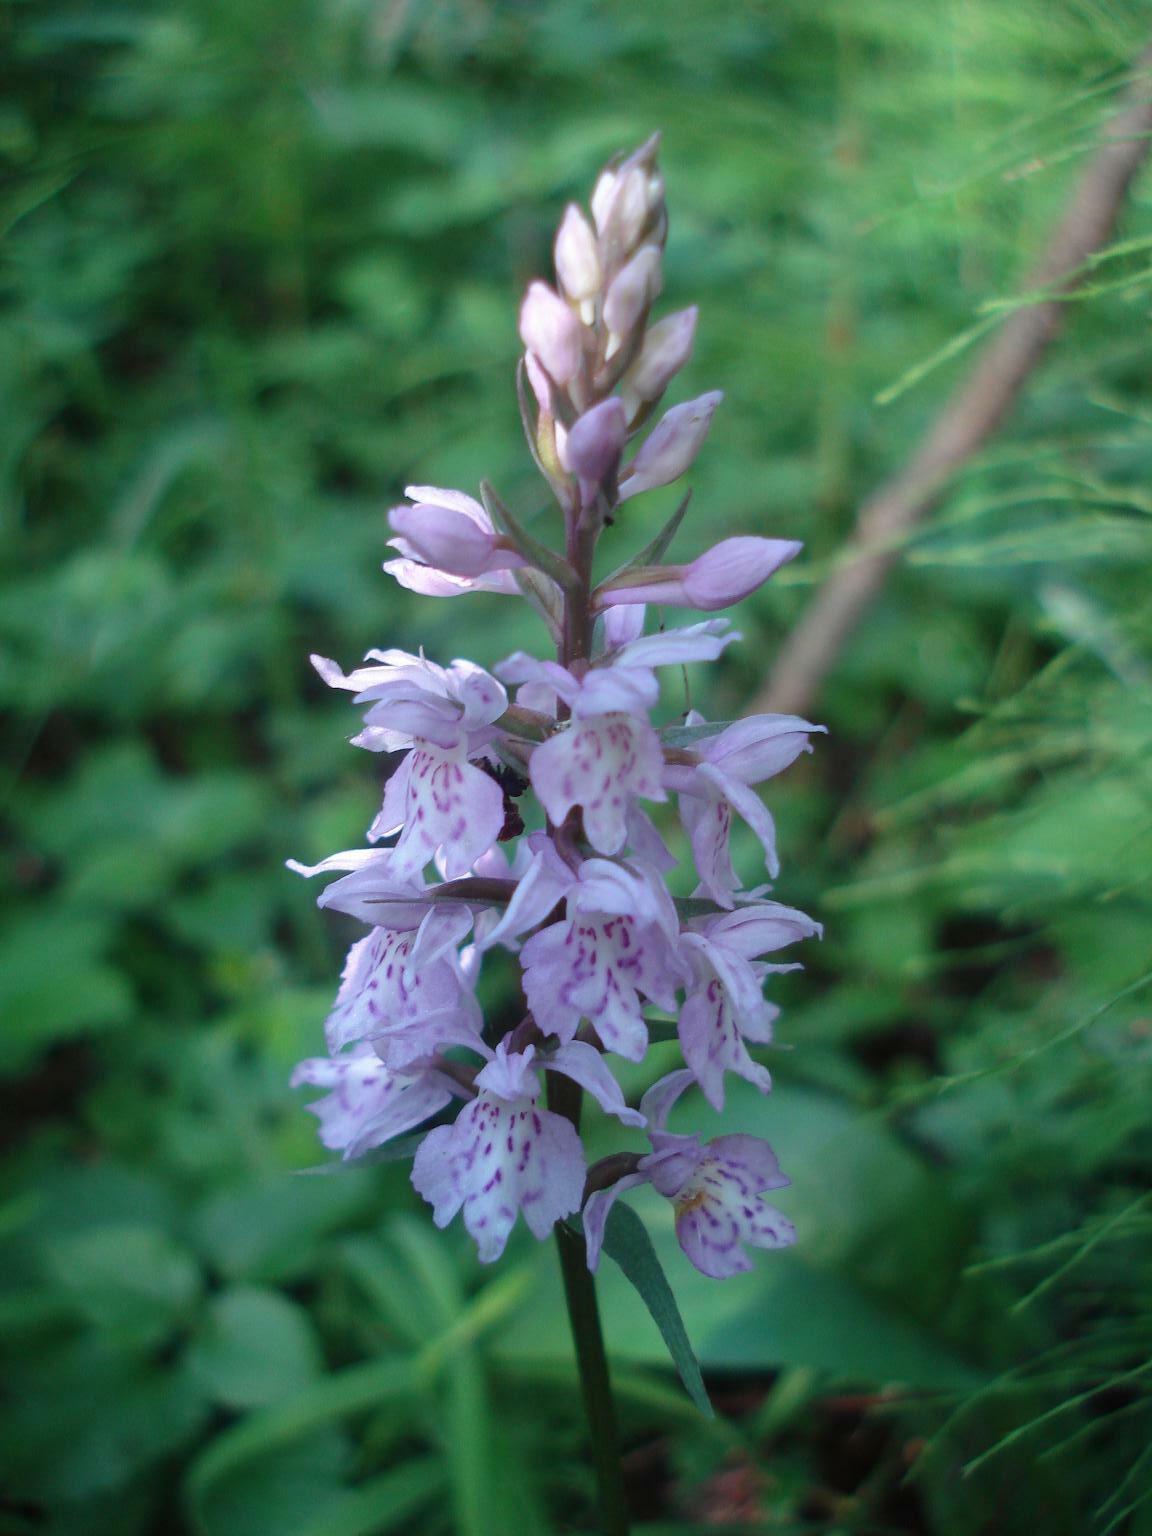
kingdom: Plantae
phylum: Tracheophyta
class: Liliopsida
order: Asparagales
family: Orchidaceae
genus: Dactylorhiza
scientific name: Dactylorhiza maculata
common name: Heath spotted-orchid
